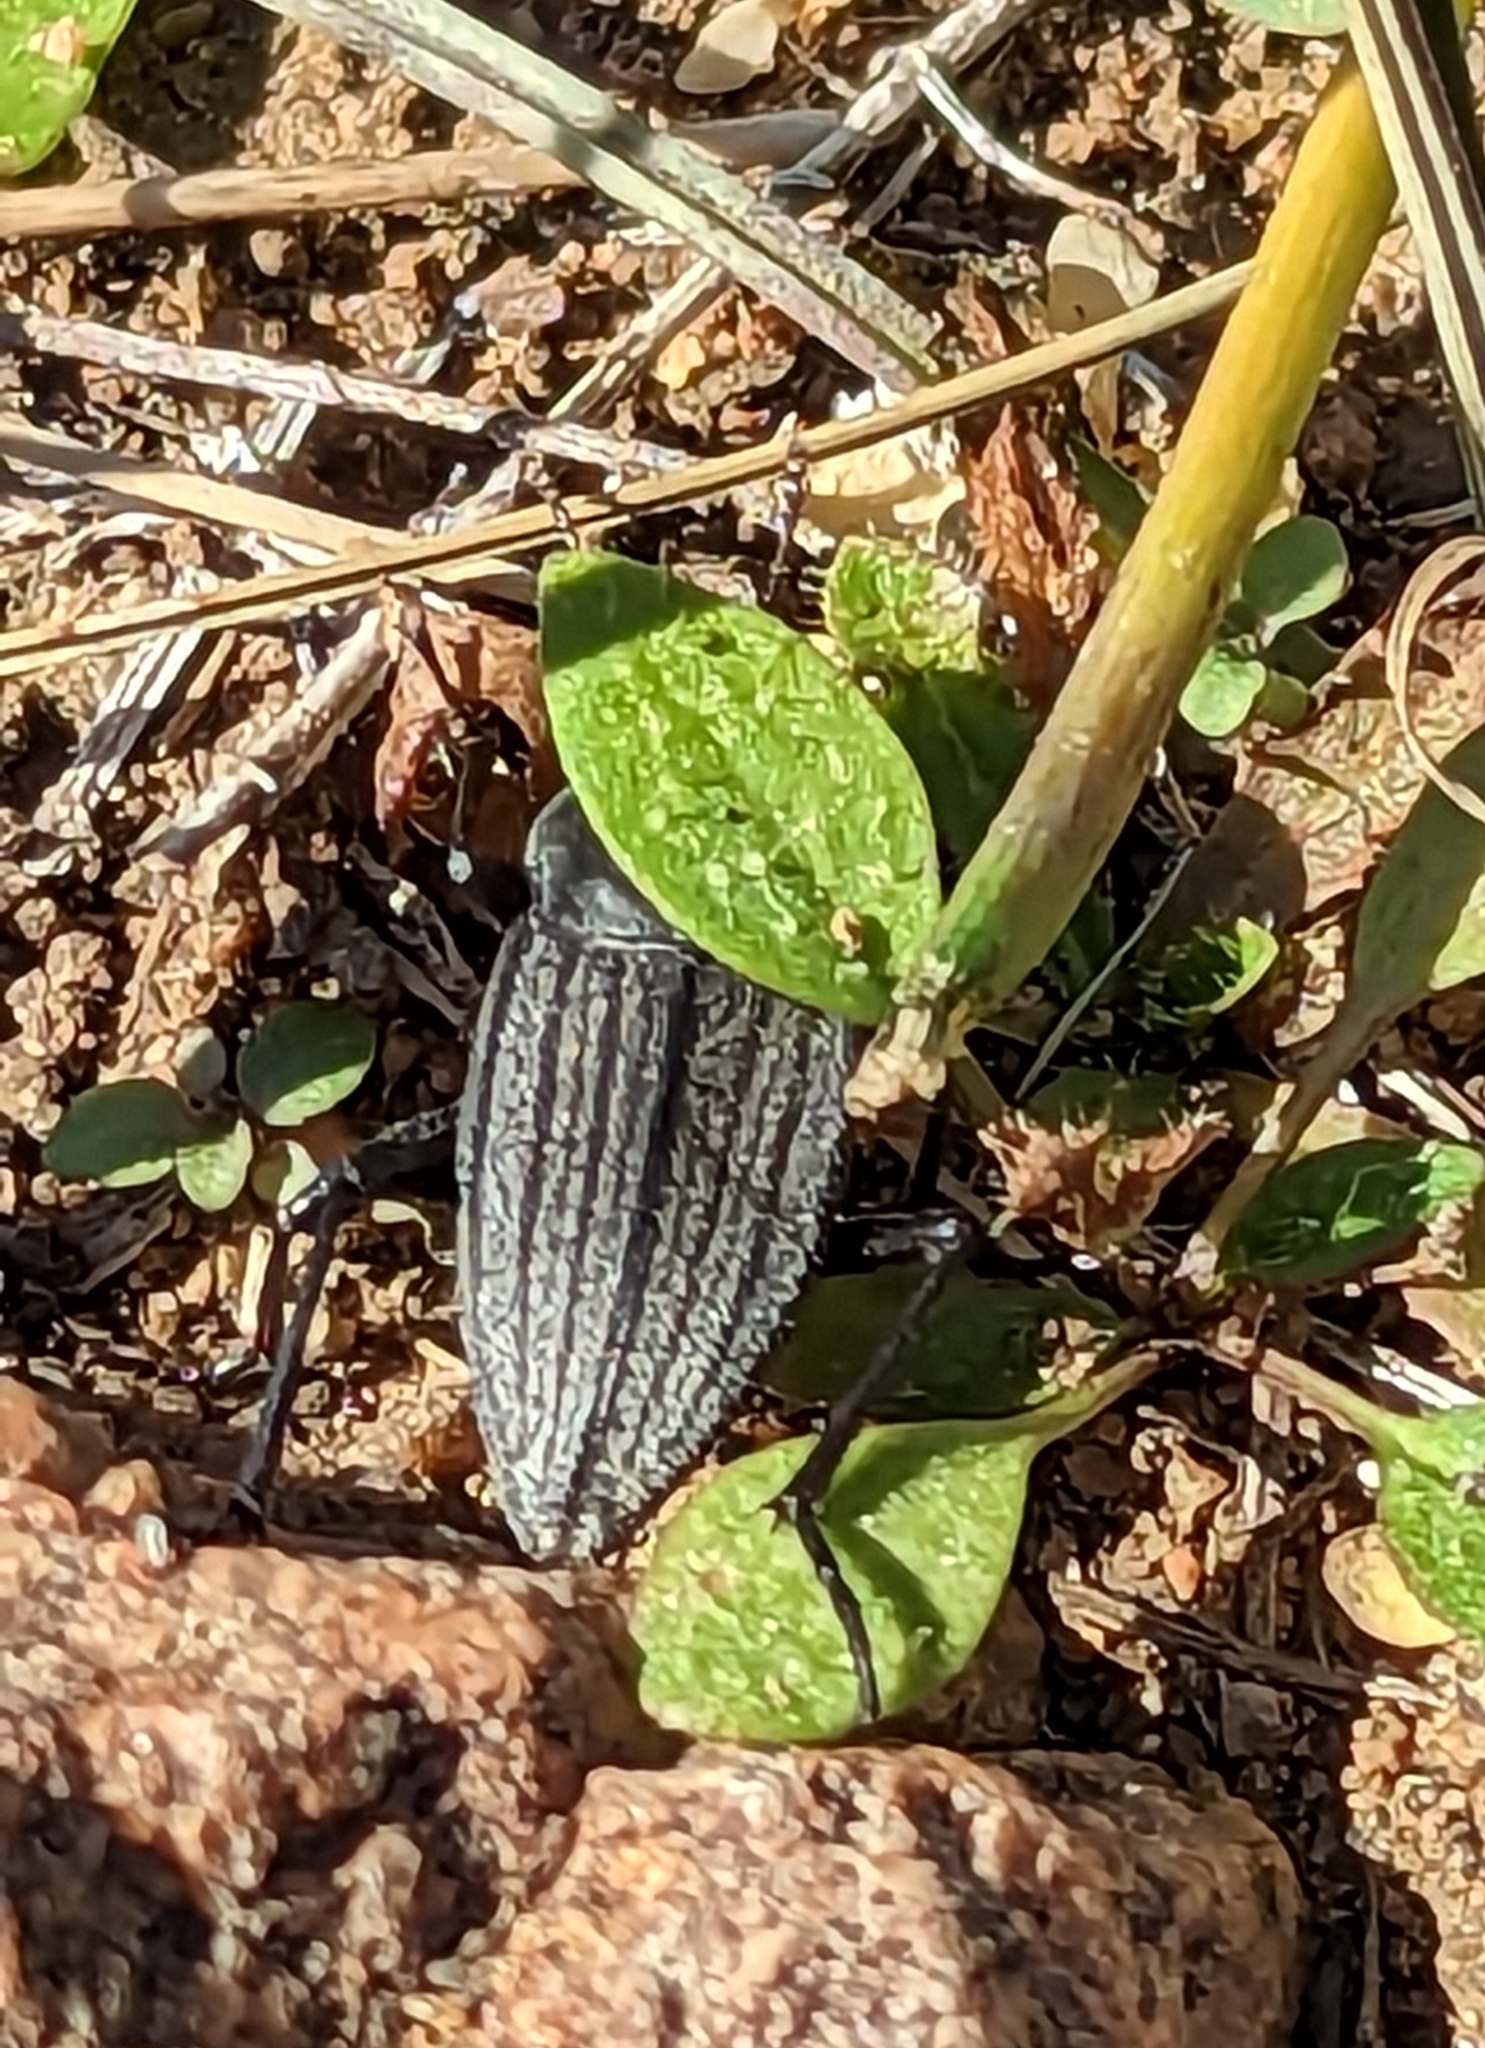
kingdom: Animalia
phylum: Arthropoda
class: Insecta
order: Coleoptera
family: Tenebrionidae
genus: Eleodes
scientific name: Eleodes tricostata
